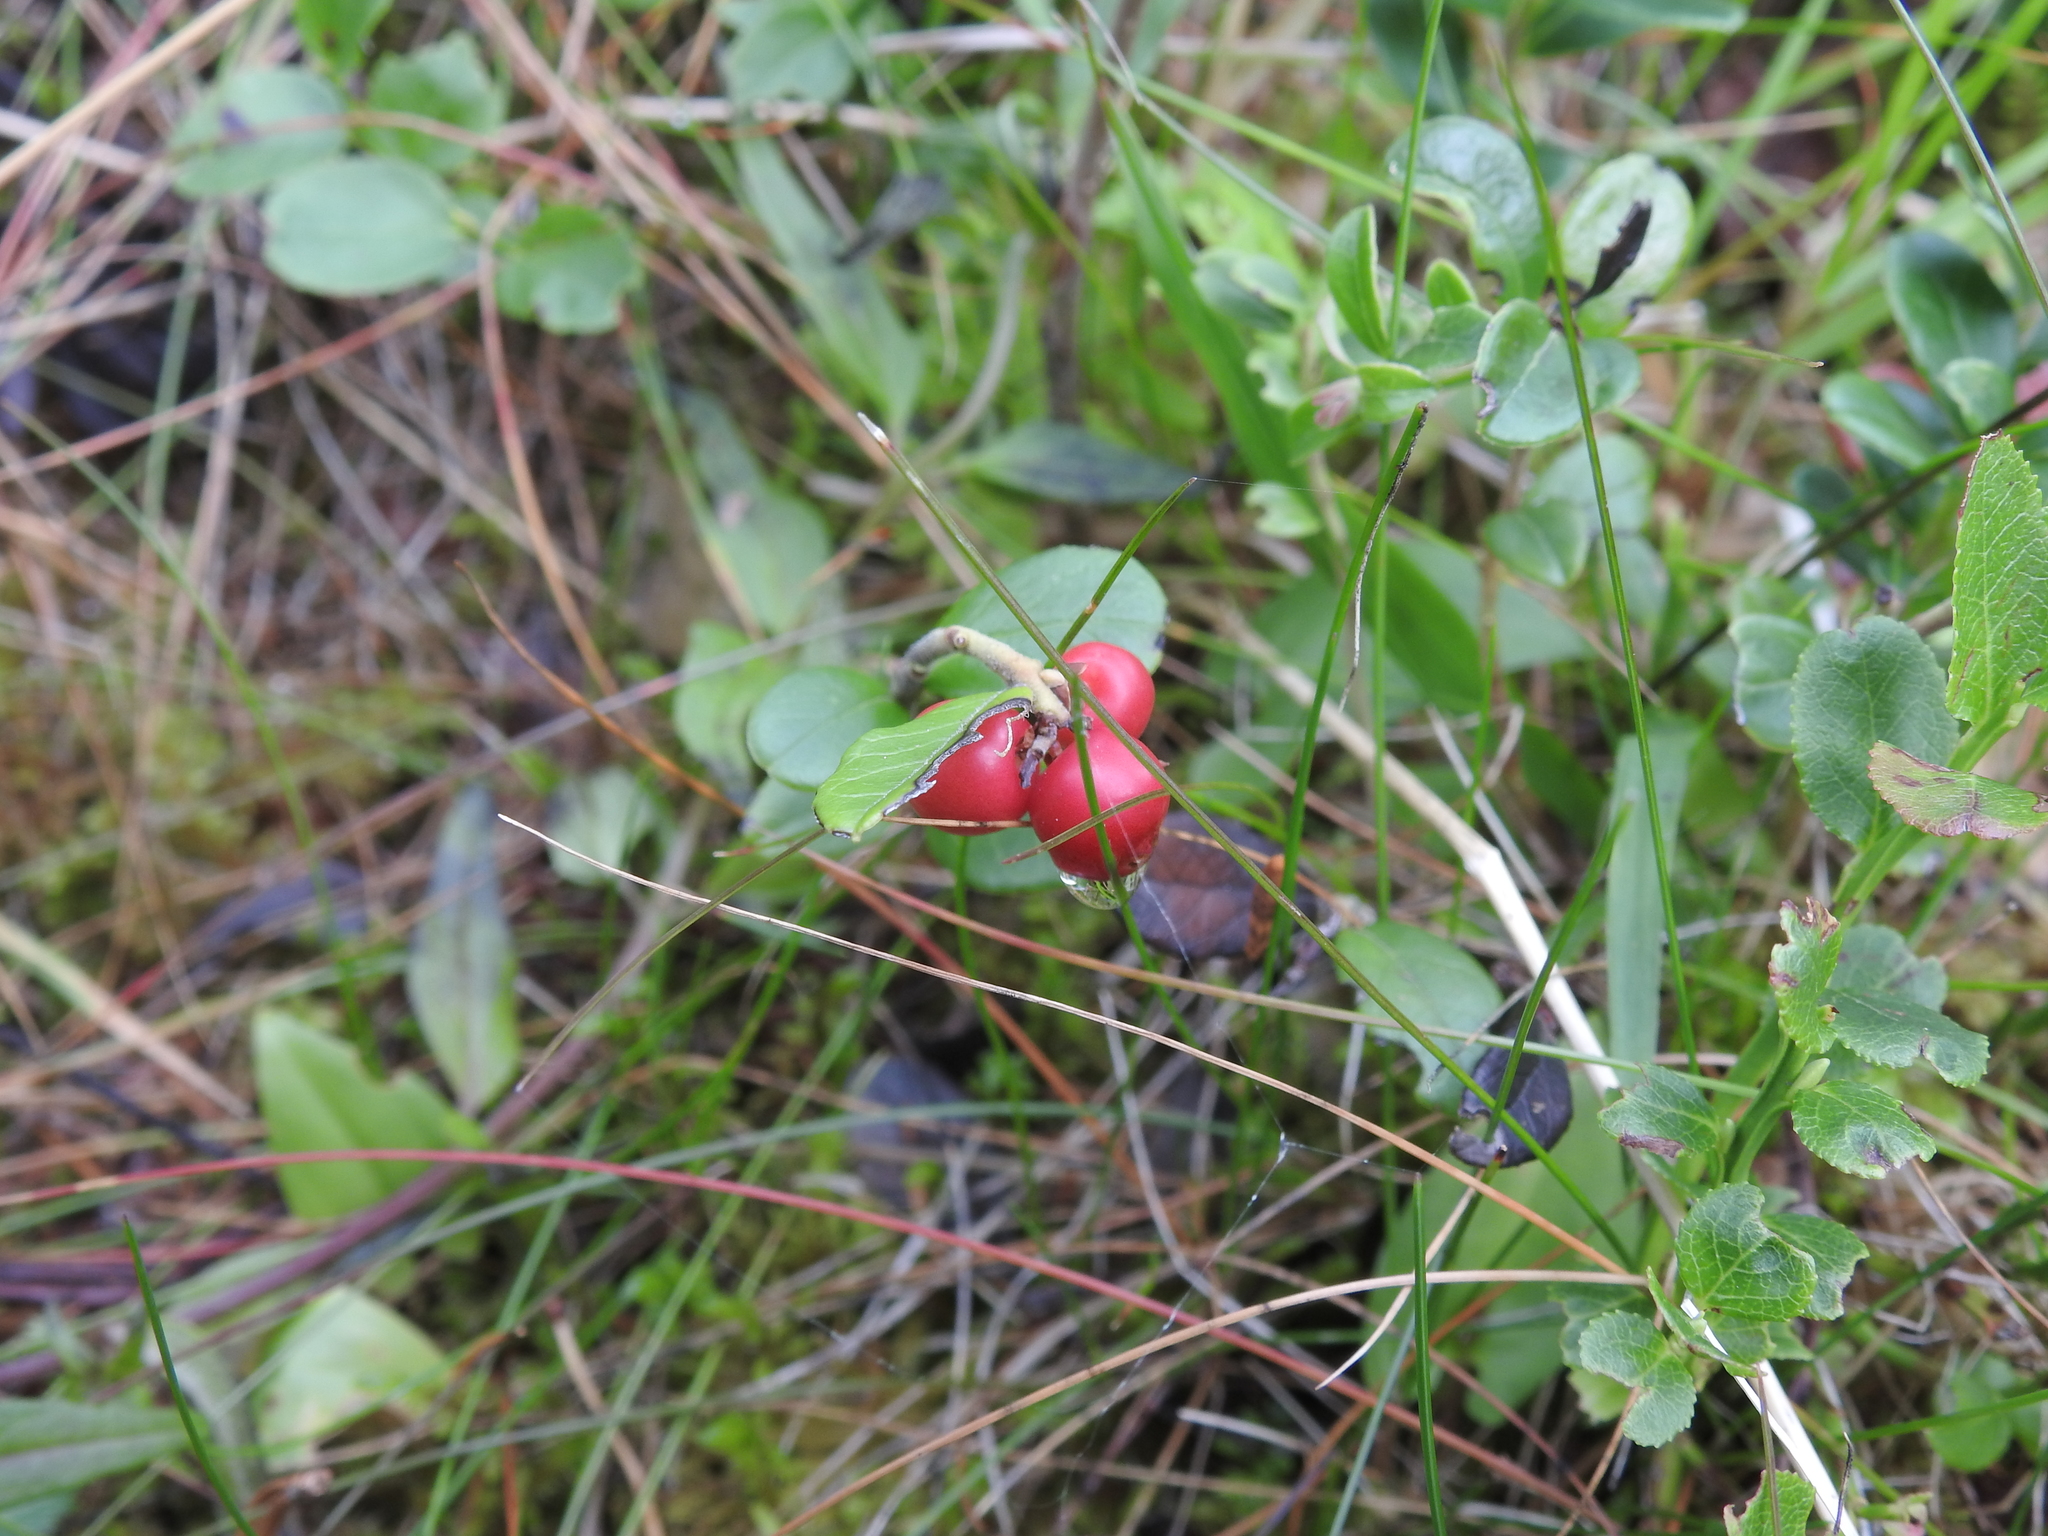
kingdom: Plantae
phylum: Tracheophyta
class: Magnoliopsida
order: Ericales
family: Ericaceae
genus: Vaccinium
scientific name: Vaccinium vitis-idaea
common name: Cowberry
